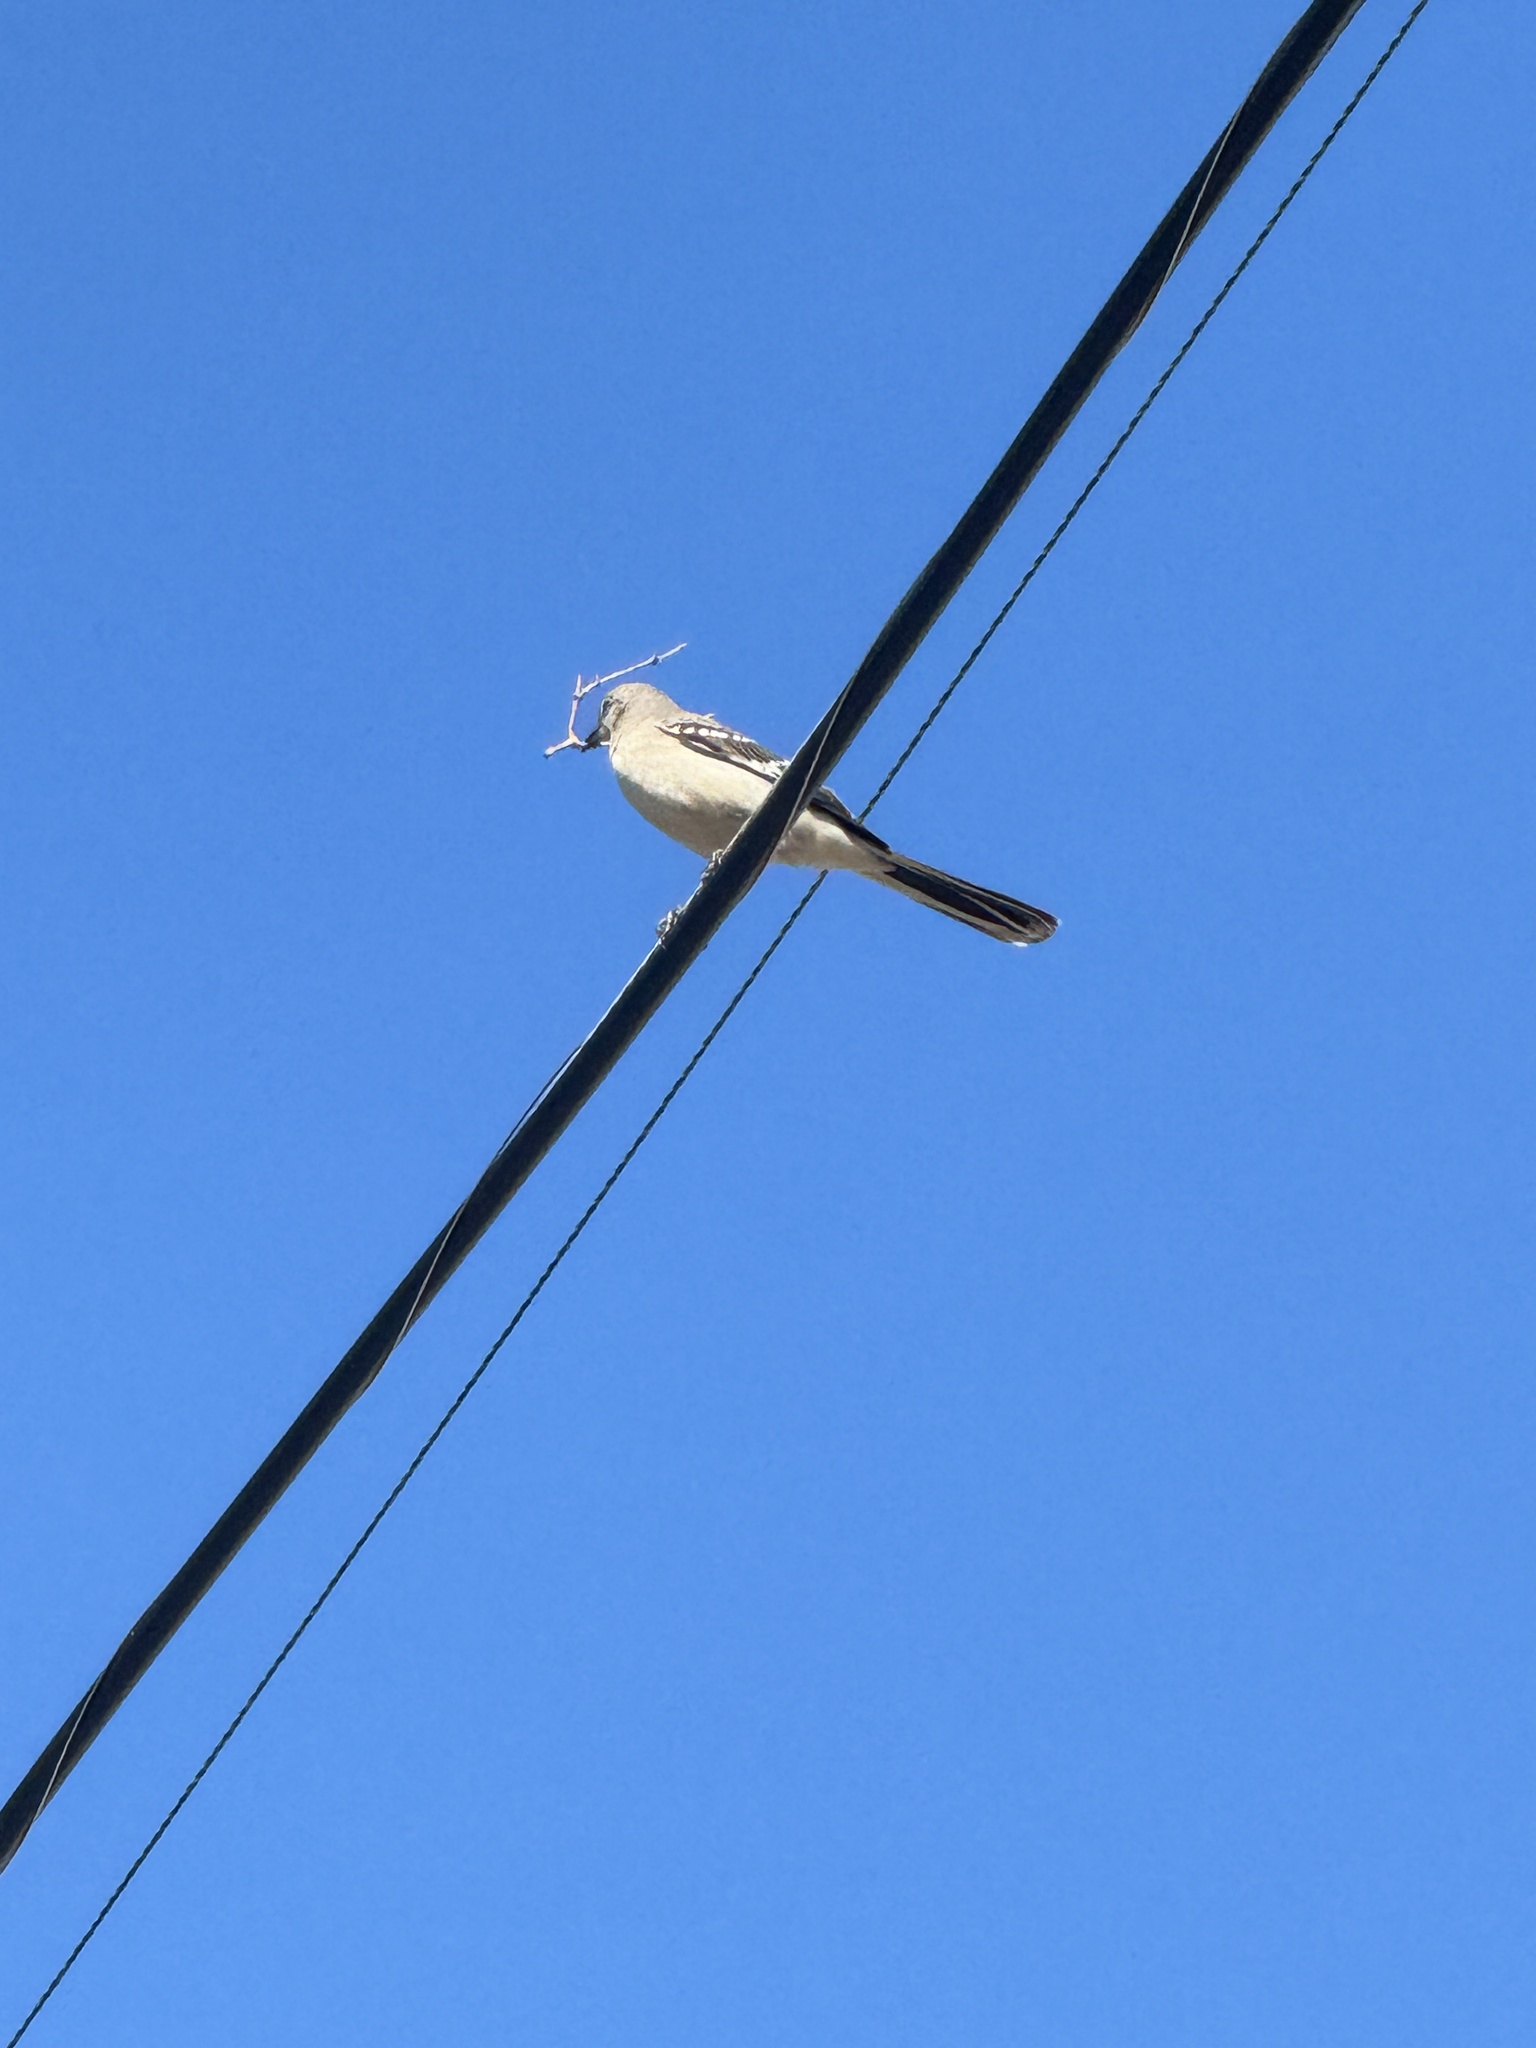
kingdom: Animalia
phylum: Chordata
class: Aves
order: Passeriformes
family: Mimidae
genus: Mimus
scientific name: Mimus polyglottos
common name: Northern mockingbird
